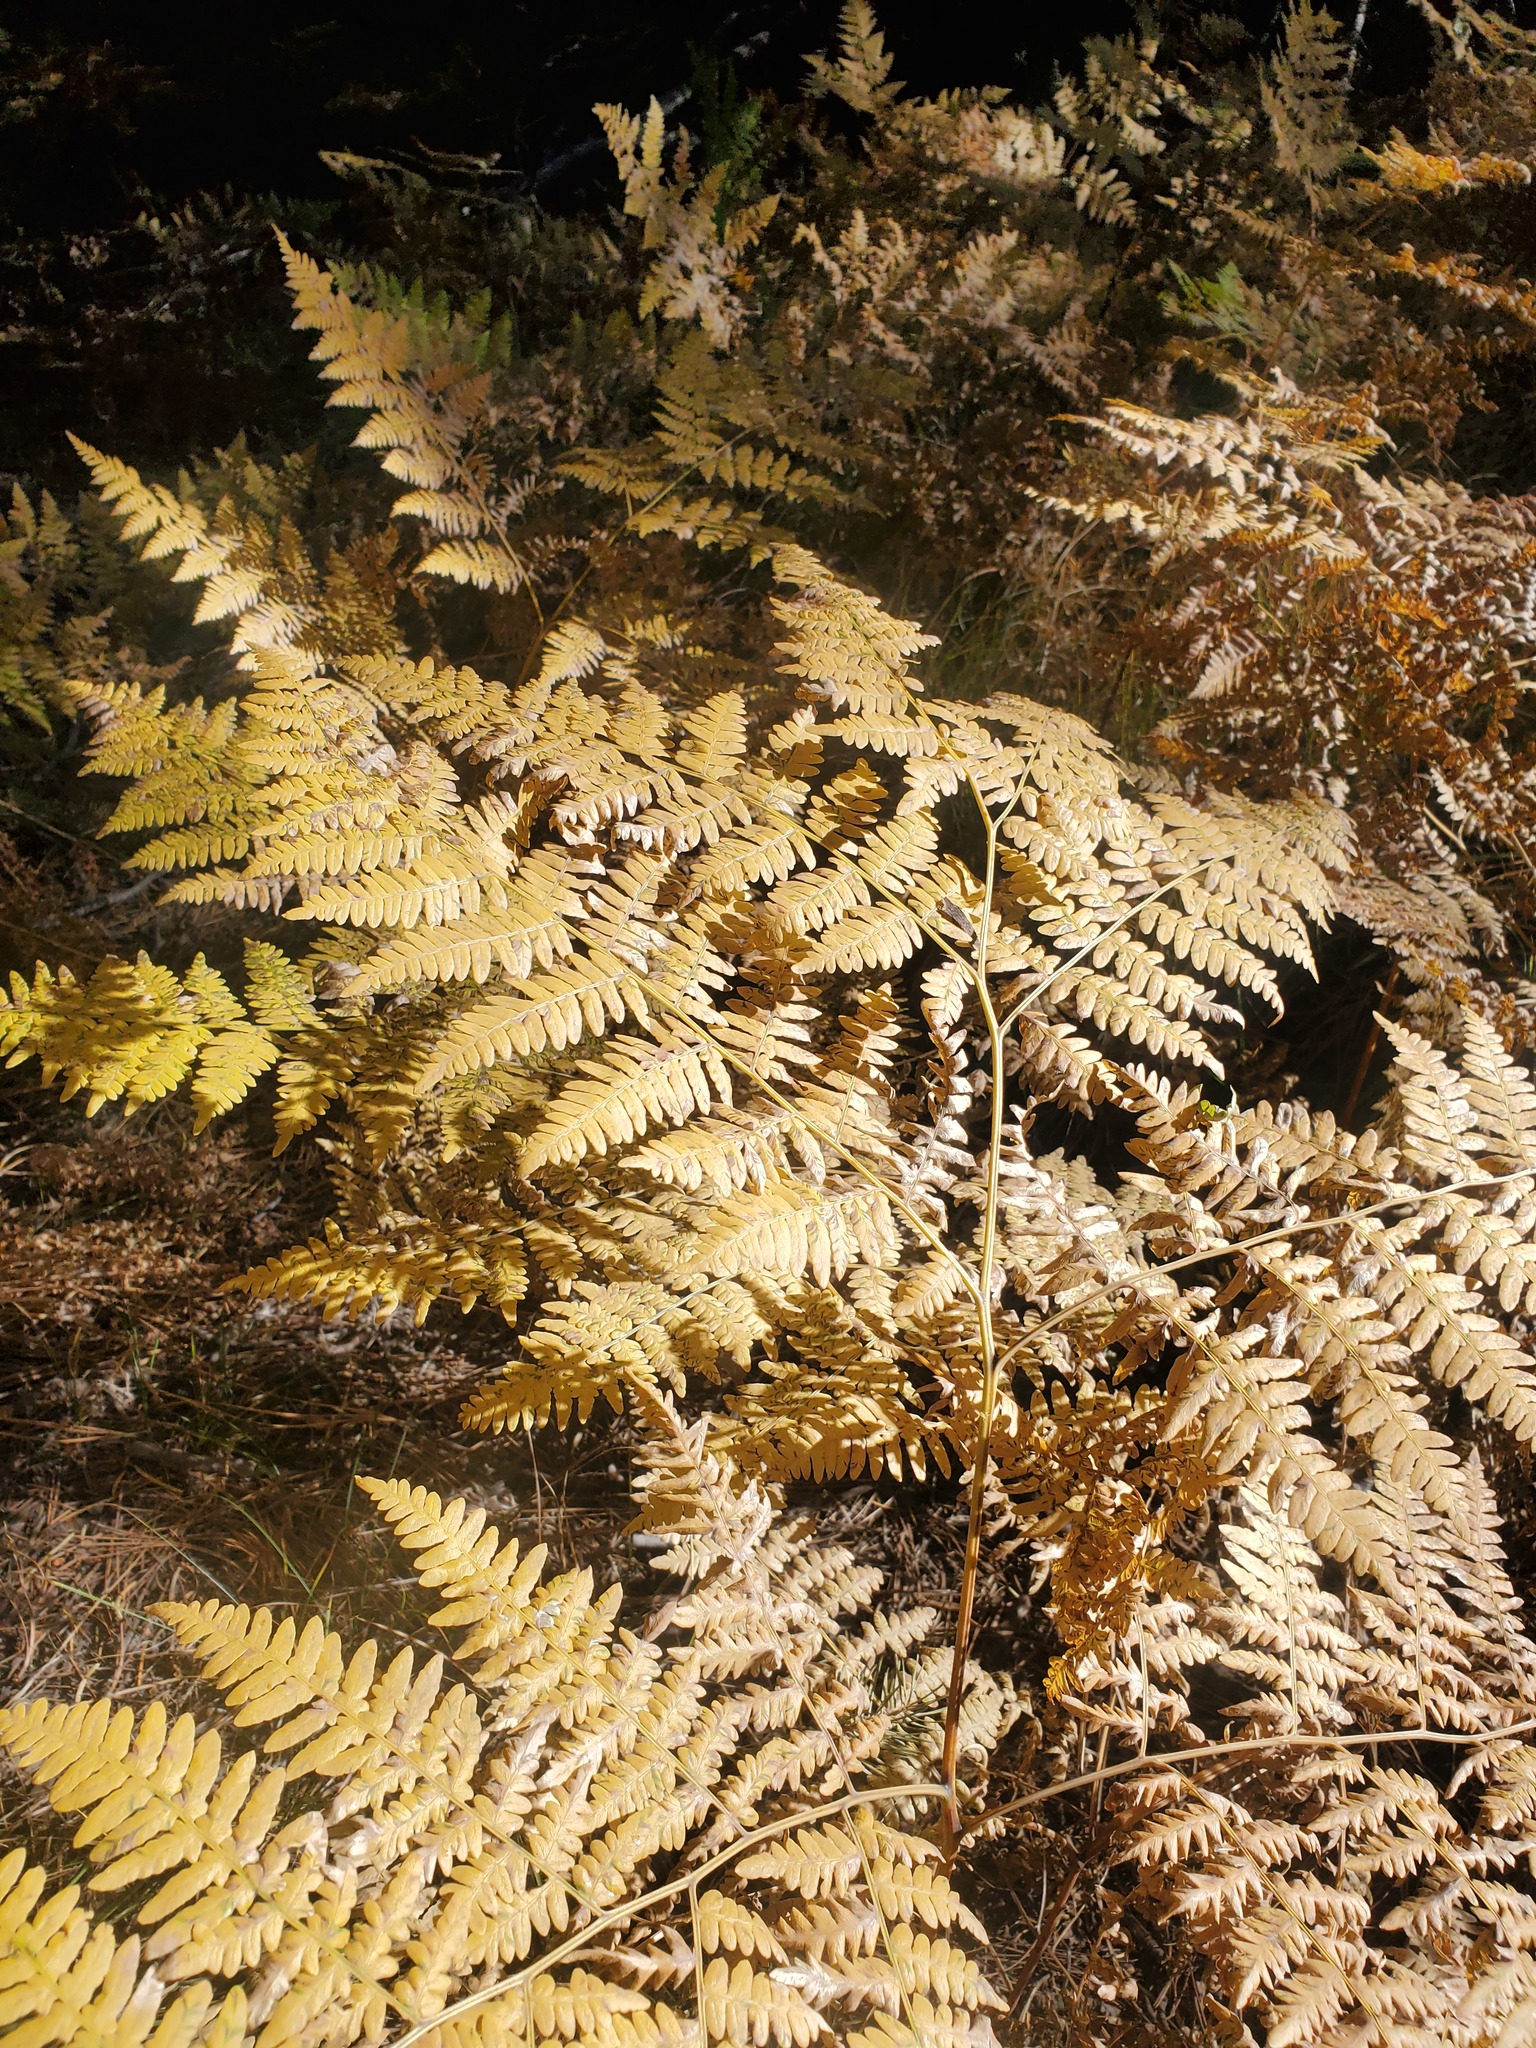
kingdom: Plantae
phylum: Tracheophyta
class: Polypodiopsida
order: Polypodiales
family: Dennstaedtiaceae
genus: Pteridium
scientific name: Pteridium aquilinum
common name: Bracken
